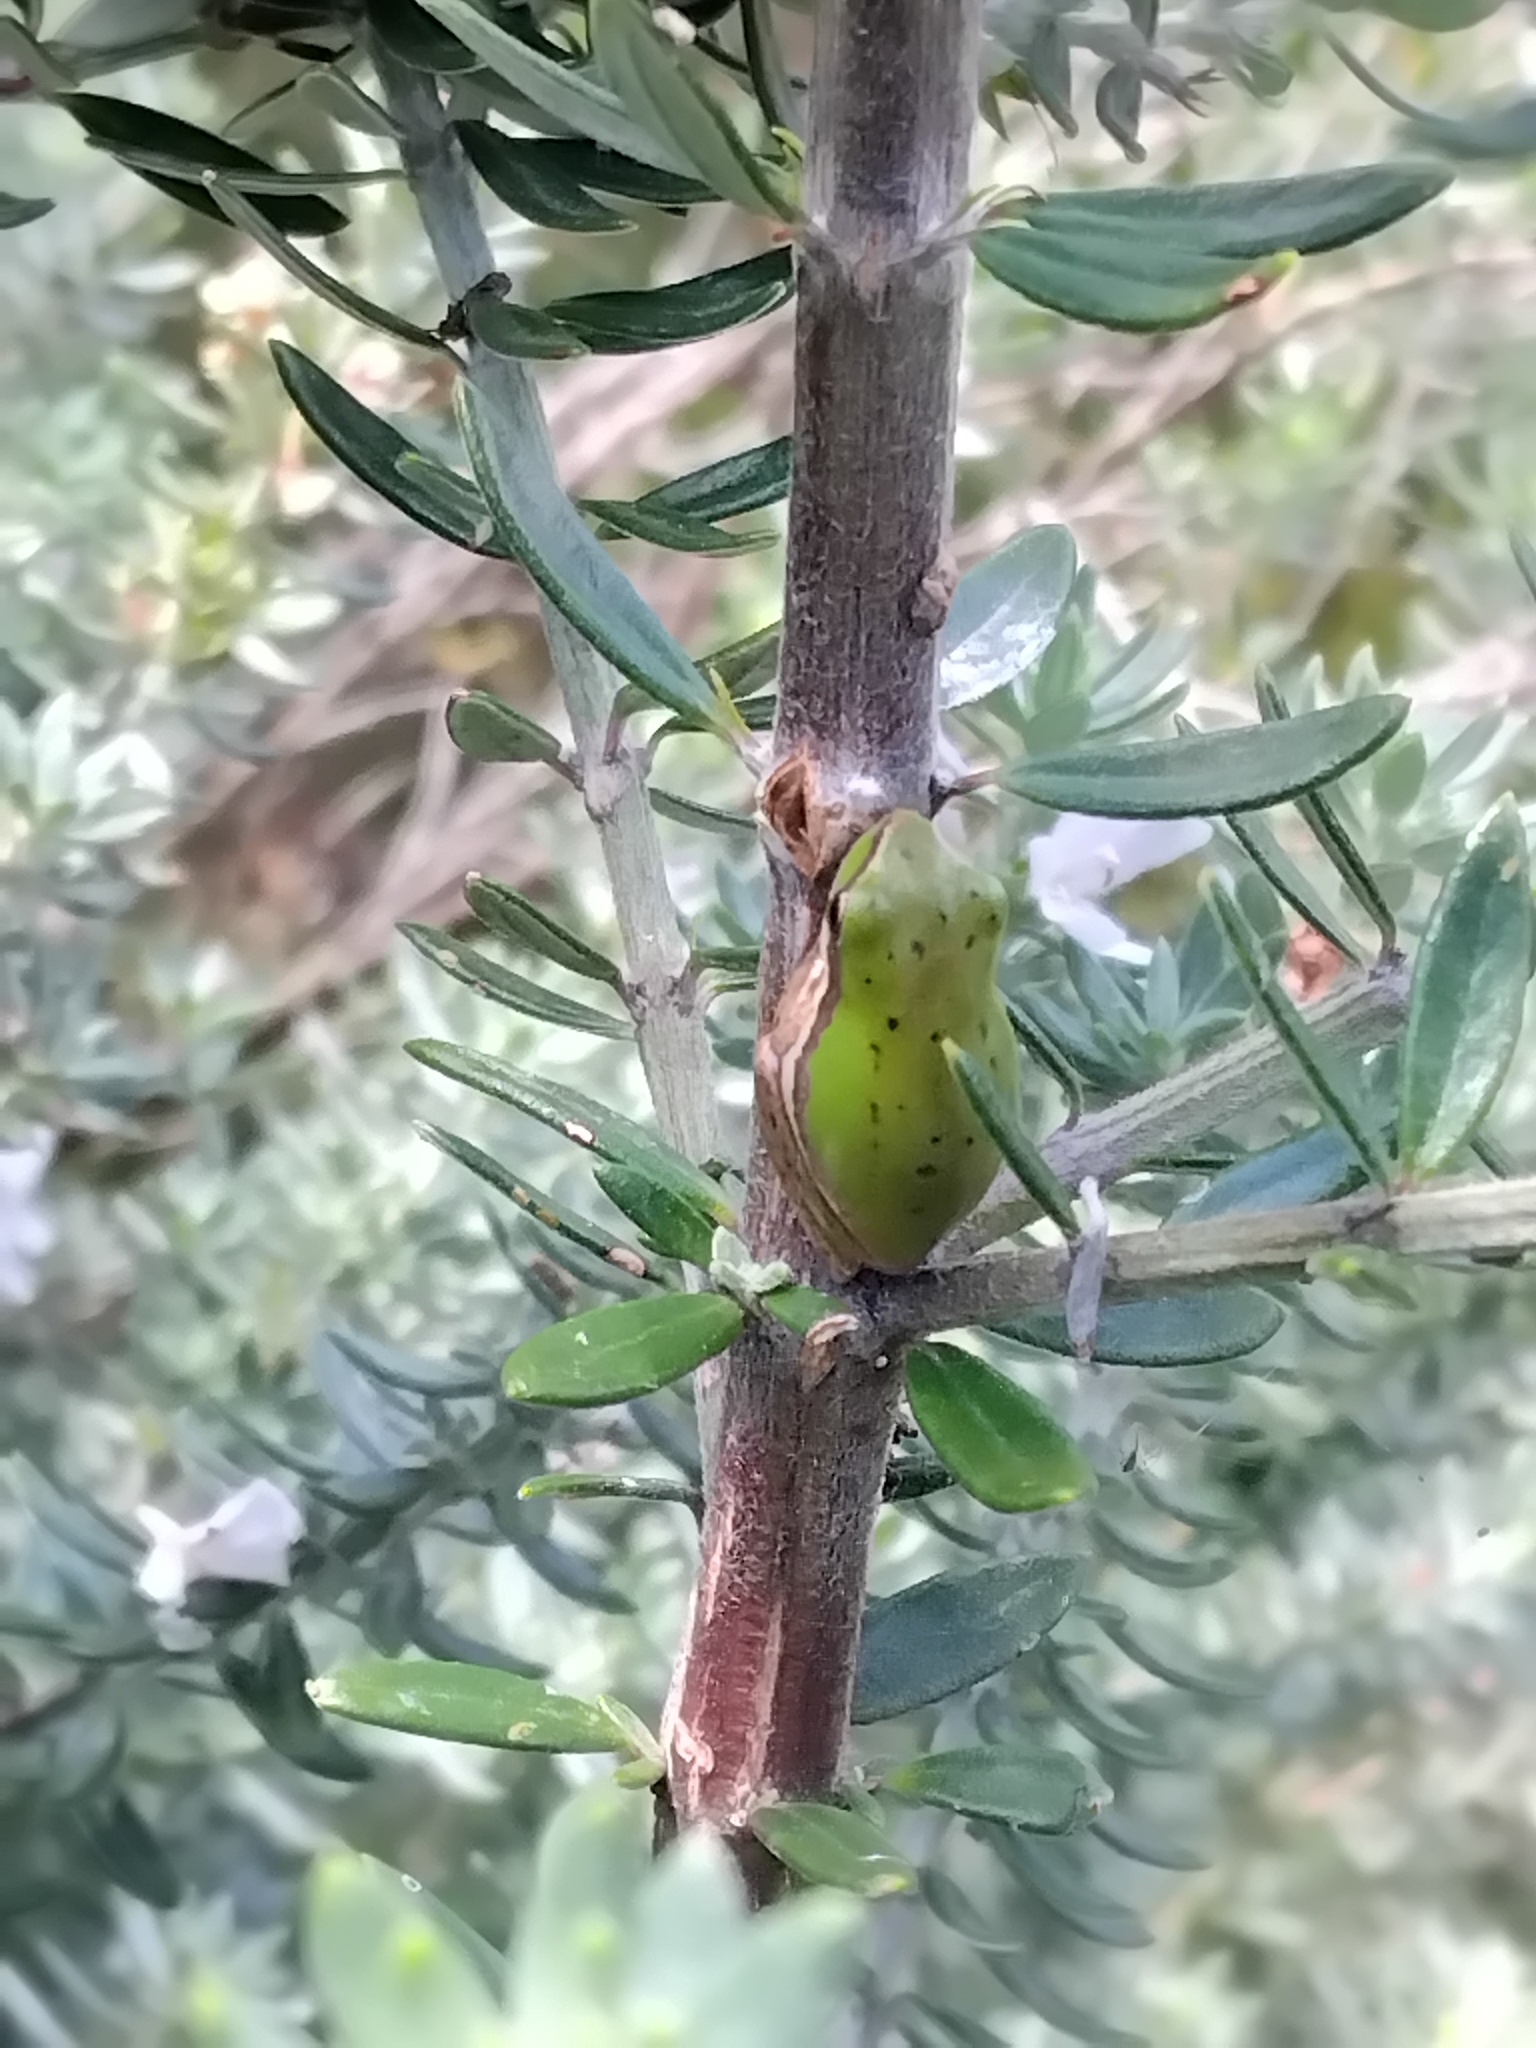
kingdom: Animalia
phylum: Chordata
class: Amphibia
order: Anura
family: Pelodryadidae
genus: Litoria
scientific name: Litoria fallax
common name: Eastern dwarf treefrog
